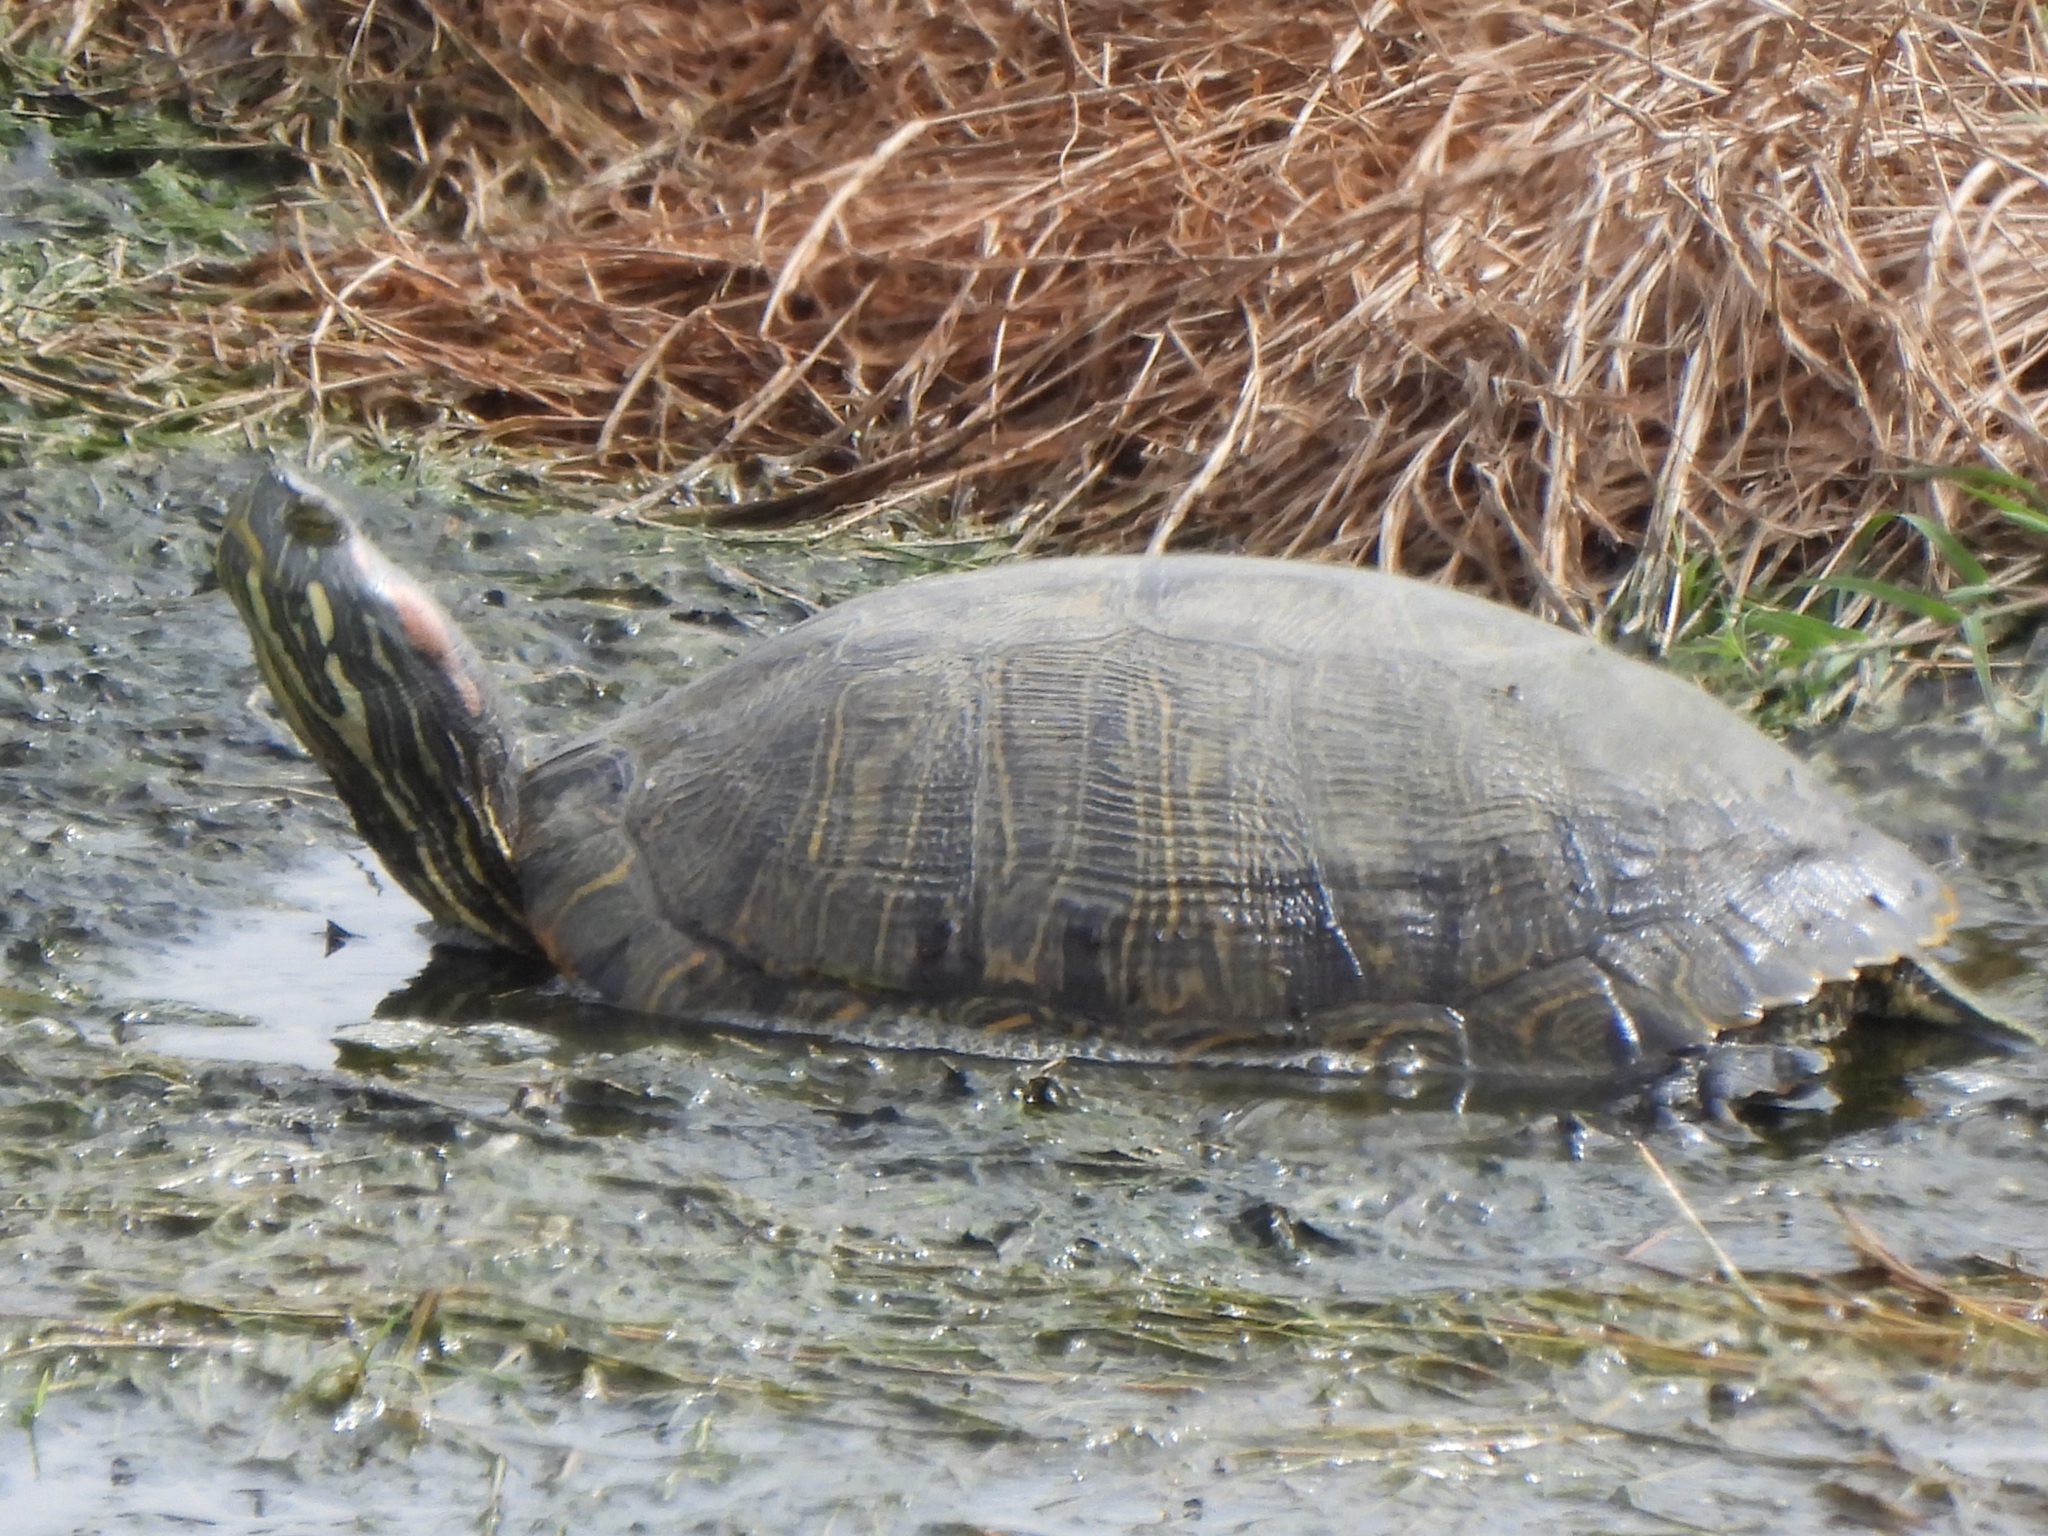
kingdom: Animalia
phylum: Chordata
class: Testudines
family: Emydidae
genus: Trachemys
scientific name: Trachemys scripta
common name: Slider
